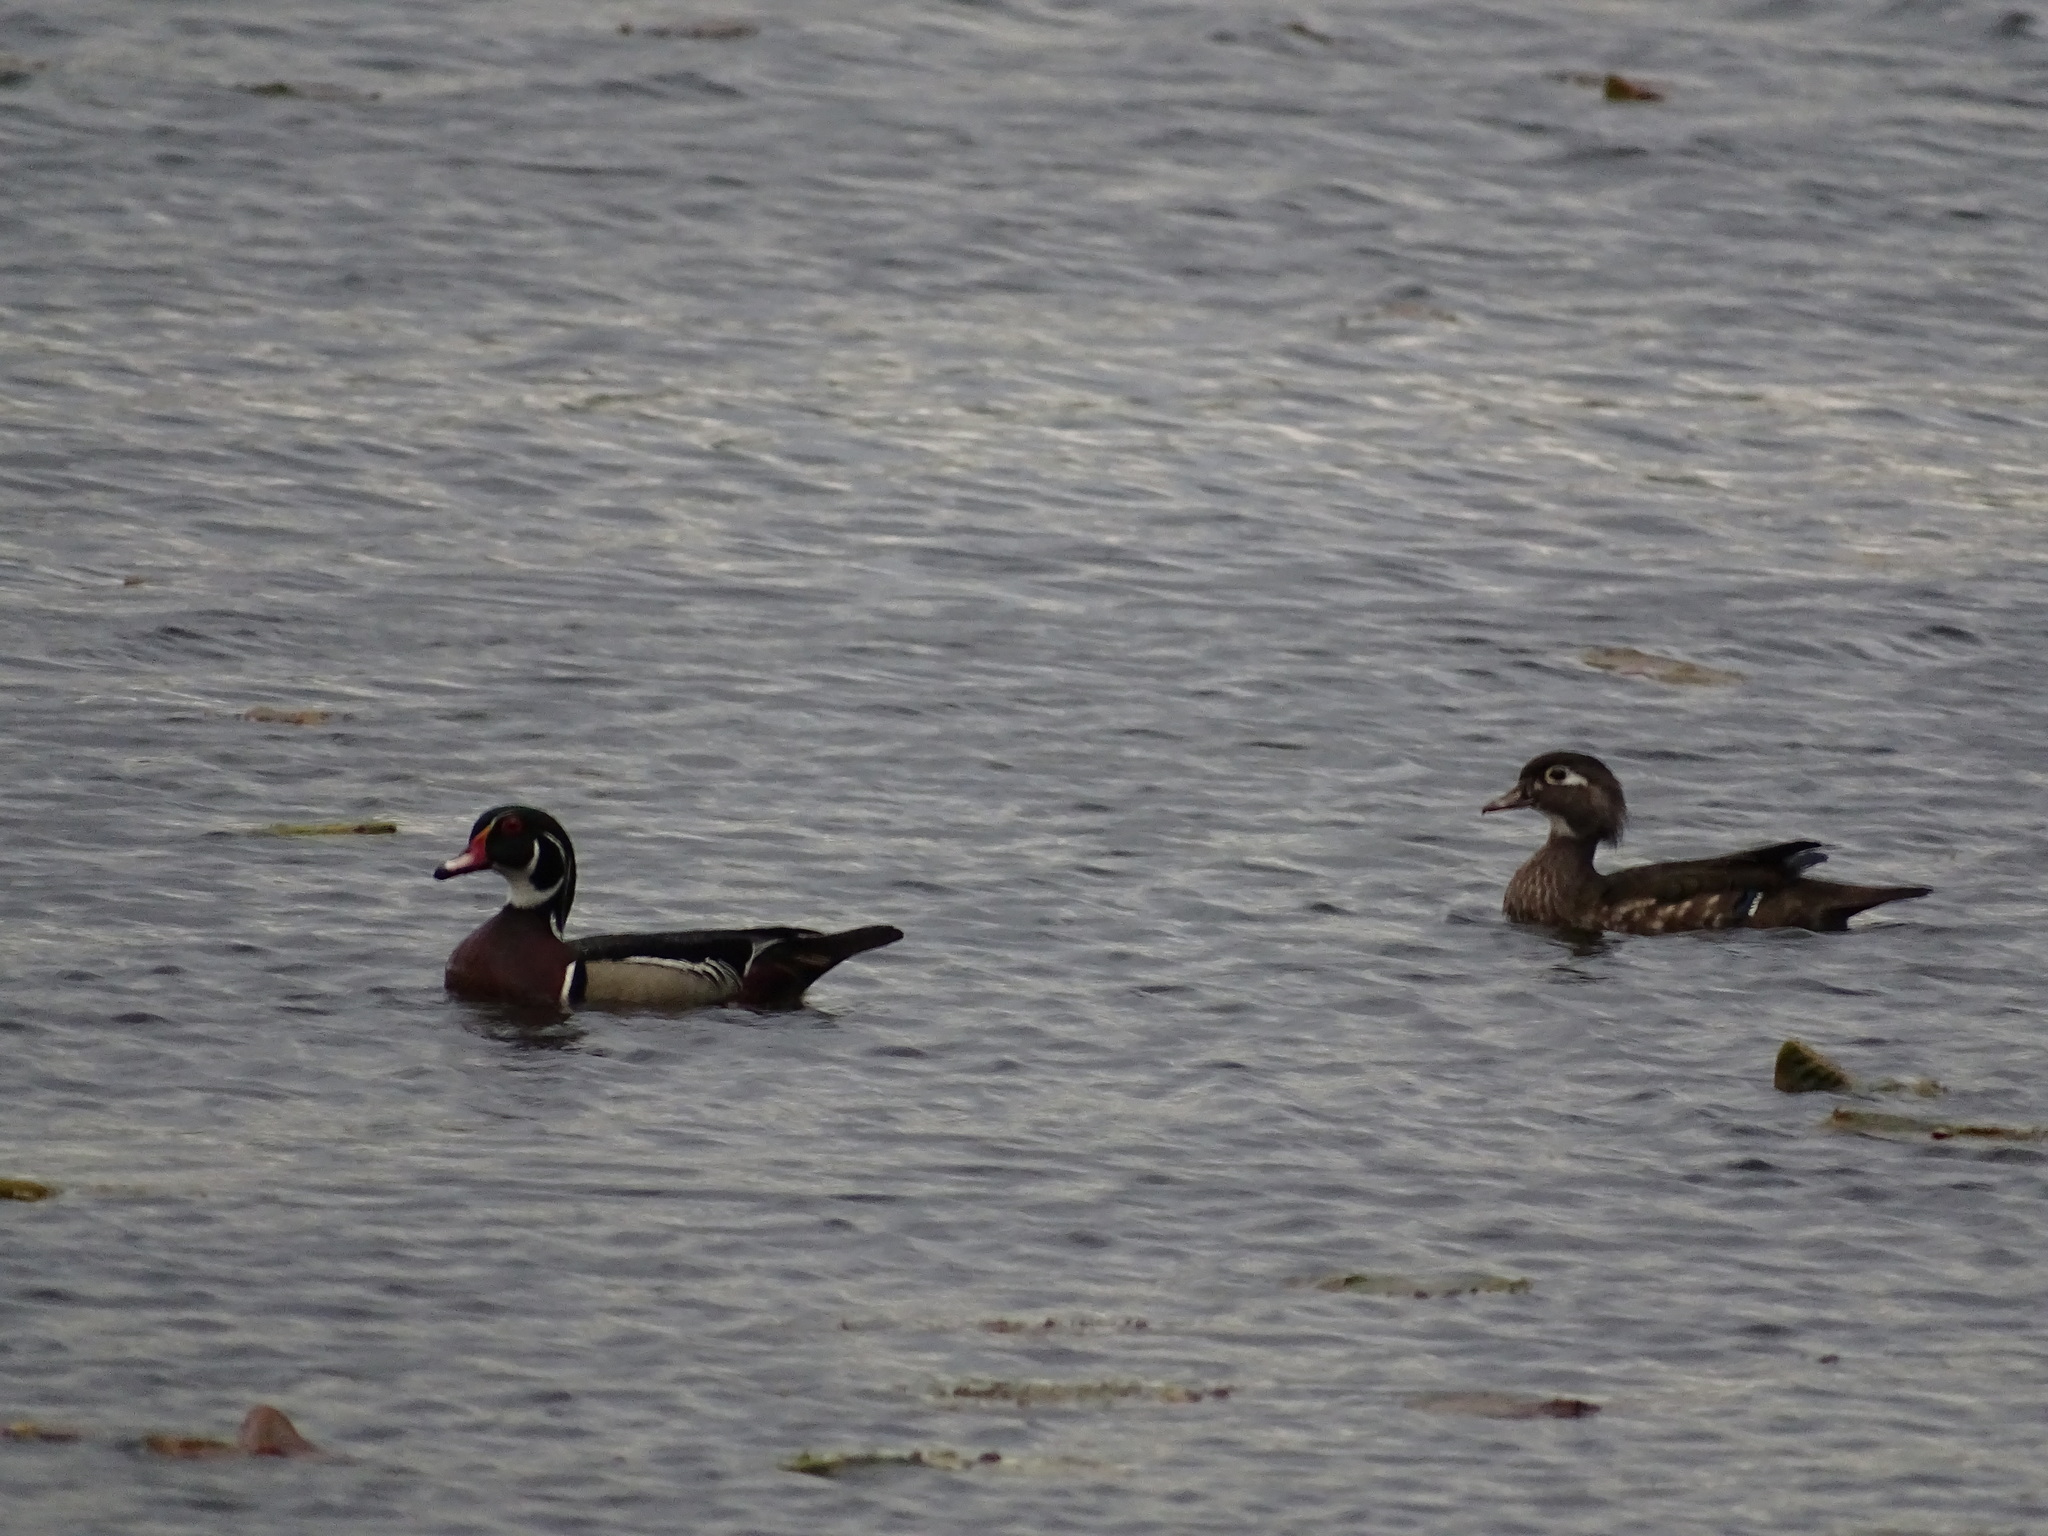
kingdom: Animalia
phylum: Chordata
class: Aves
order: Anseriformes
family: Anatidae
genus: Aix
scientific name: Aix sponsa
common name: Wood duck
